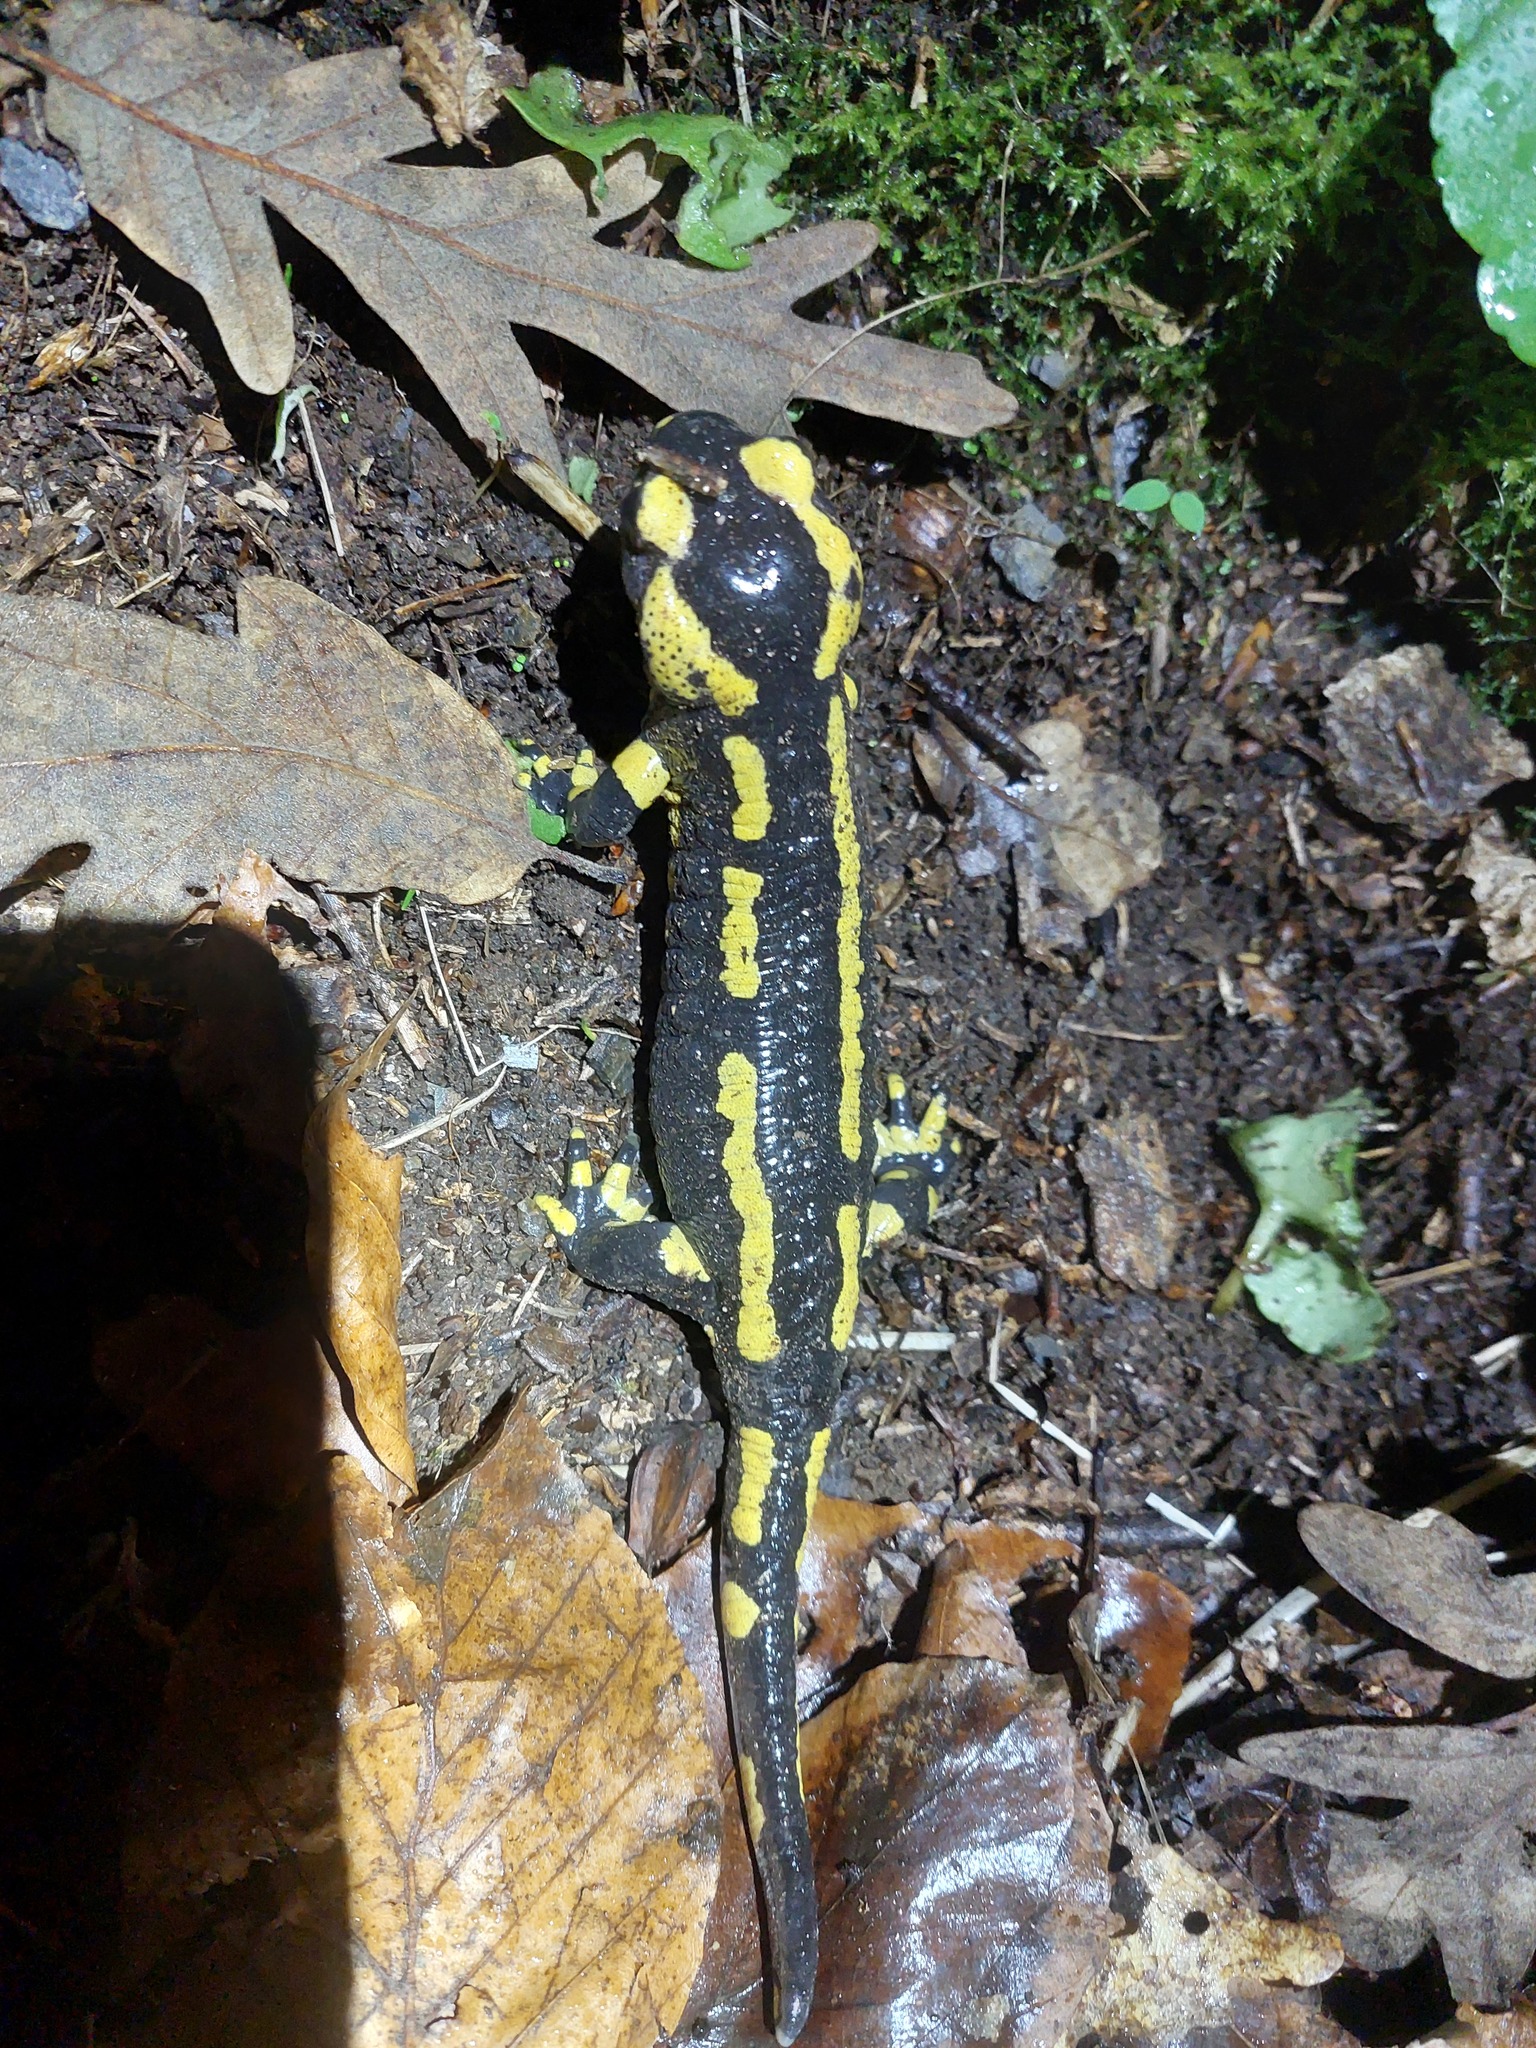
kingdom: Animalia
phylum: Chordata
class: Amphibia
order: Caudata
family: Salamandridae
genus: Salamandra
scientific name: Salamandra salamandra
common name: Fire salamander
